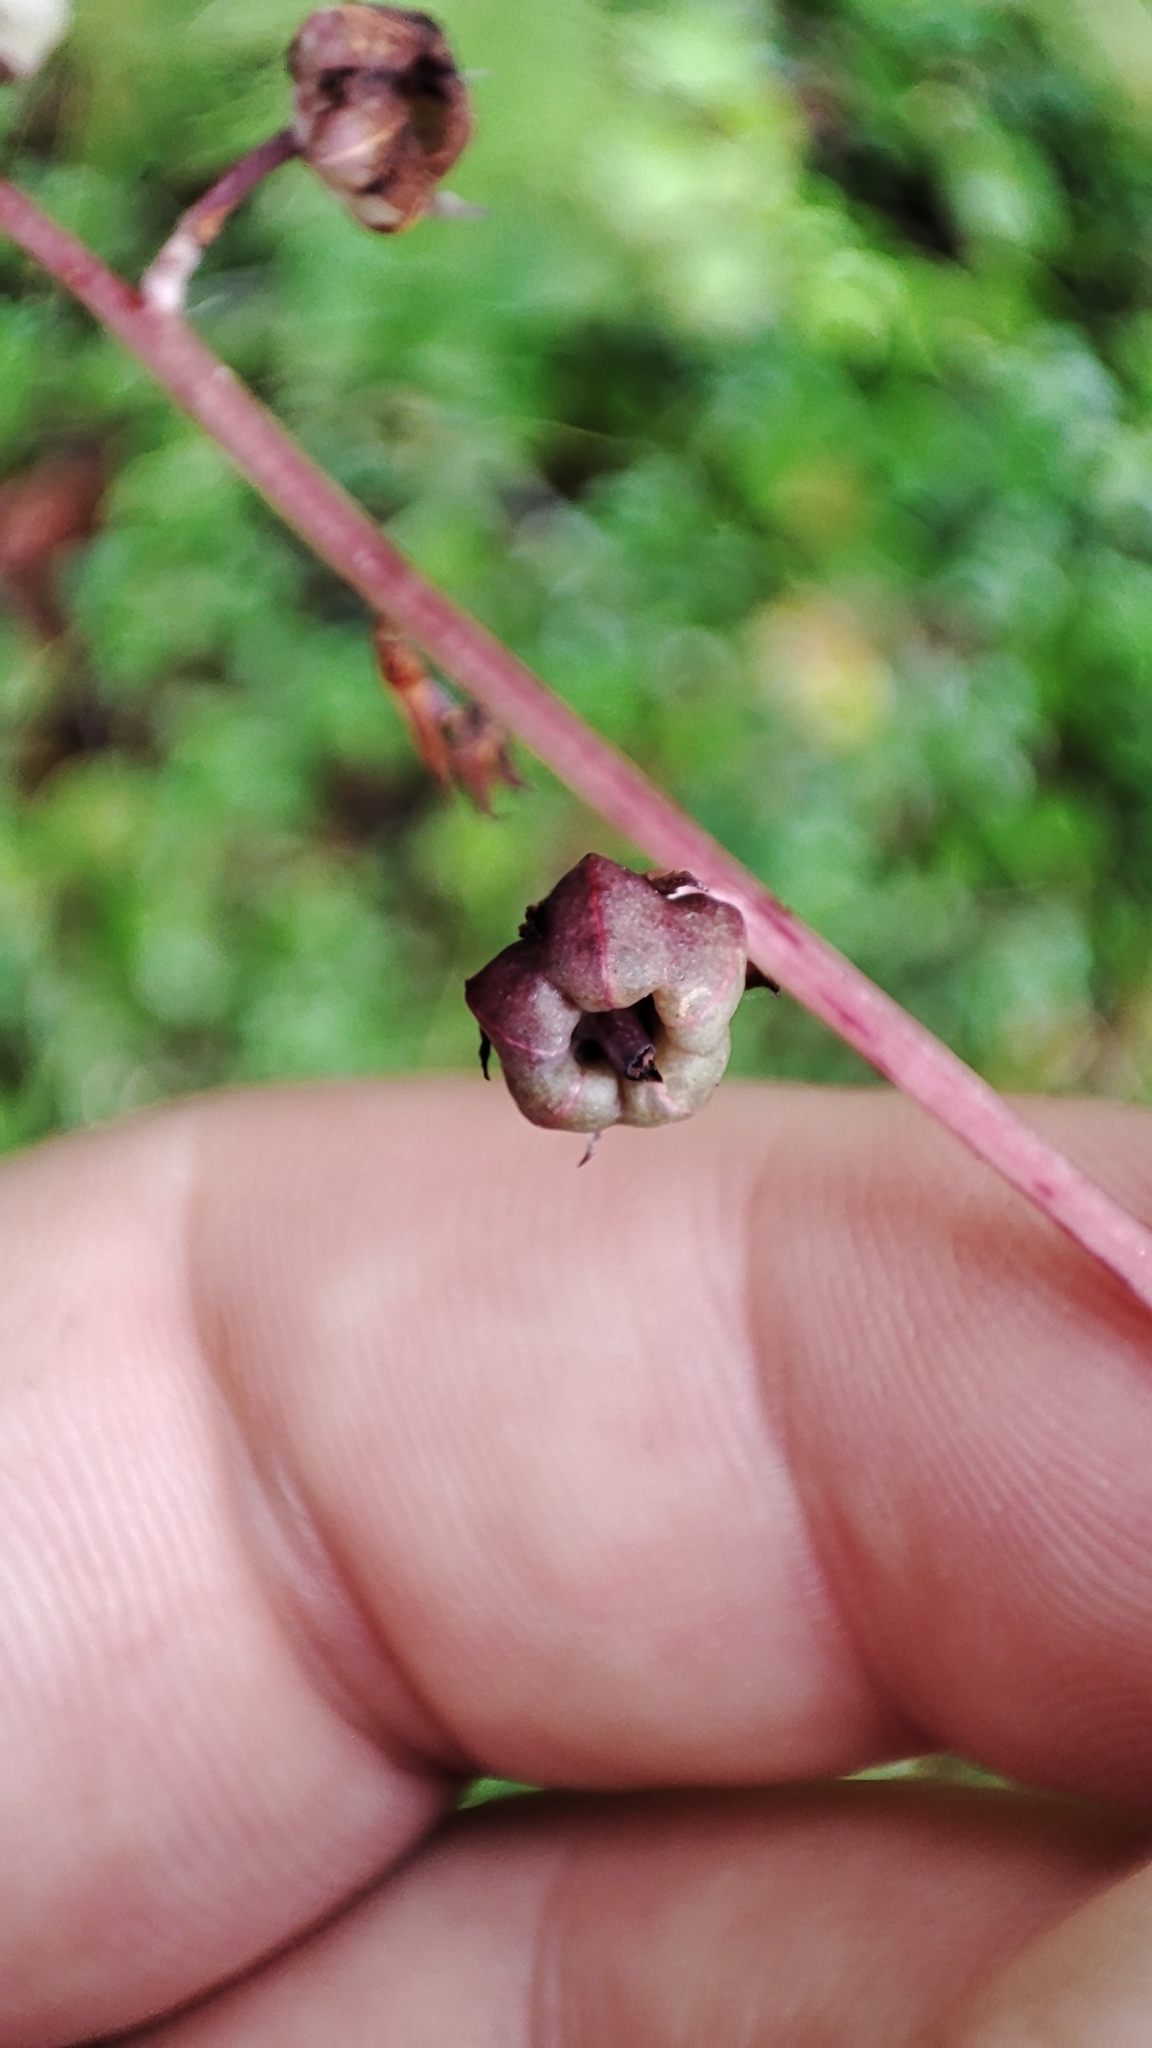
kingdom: Plantae
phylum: Tracheophyta
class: Magnoliopsida
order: Ericales
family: Ericaceae
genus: Pyrola
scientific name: Pyrola rotundifolia
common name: Round-leaved wintergreen
